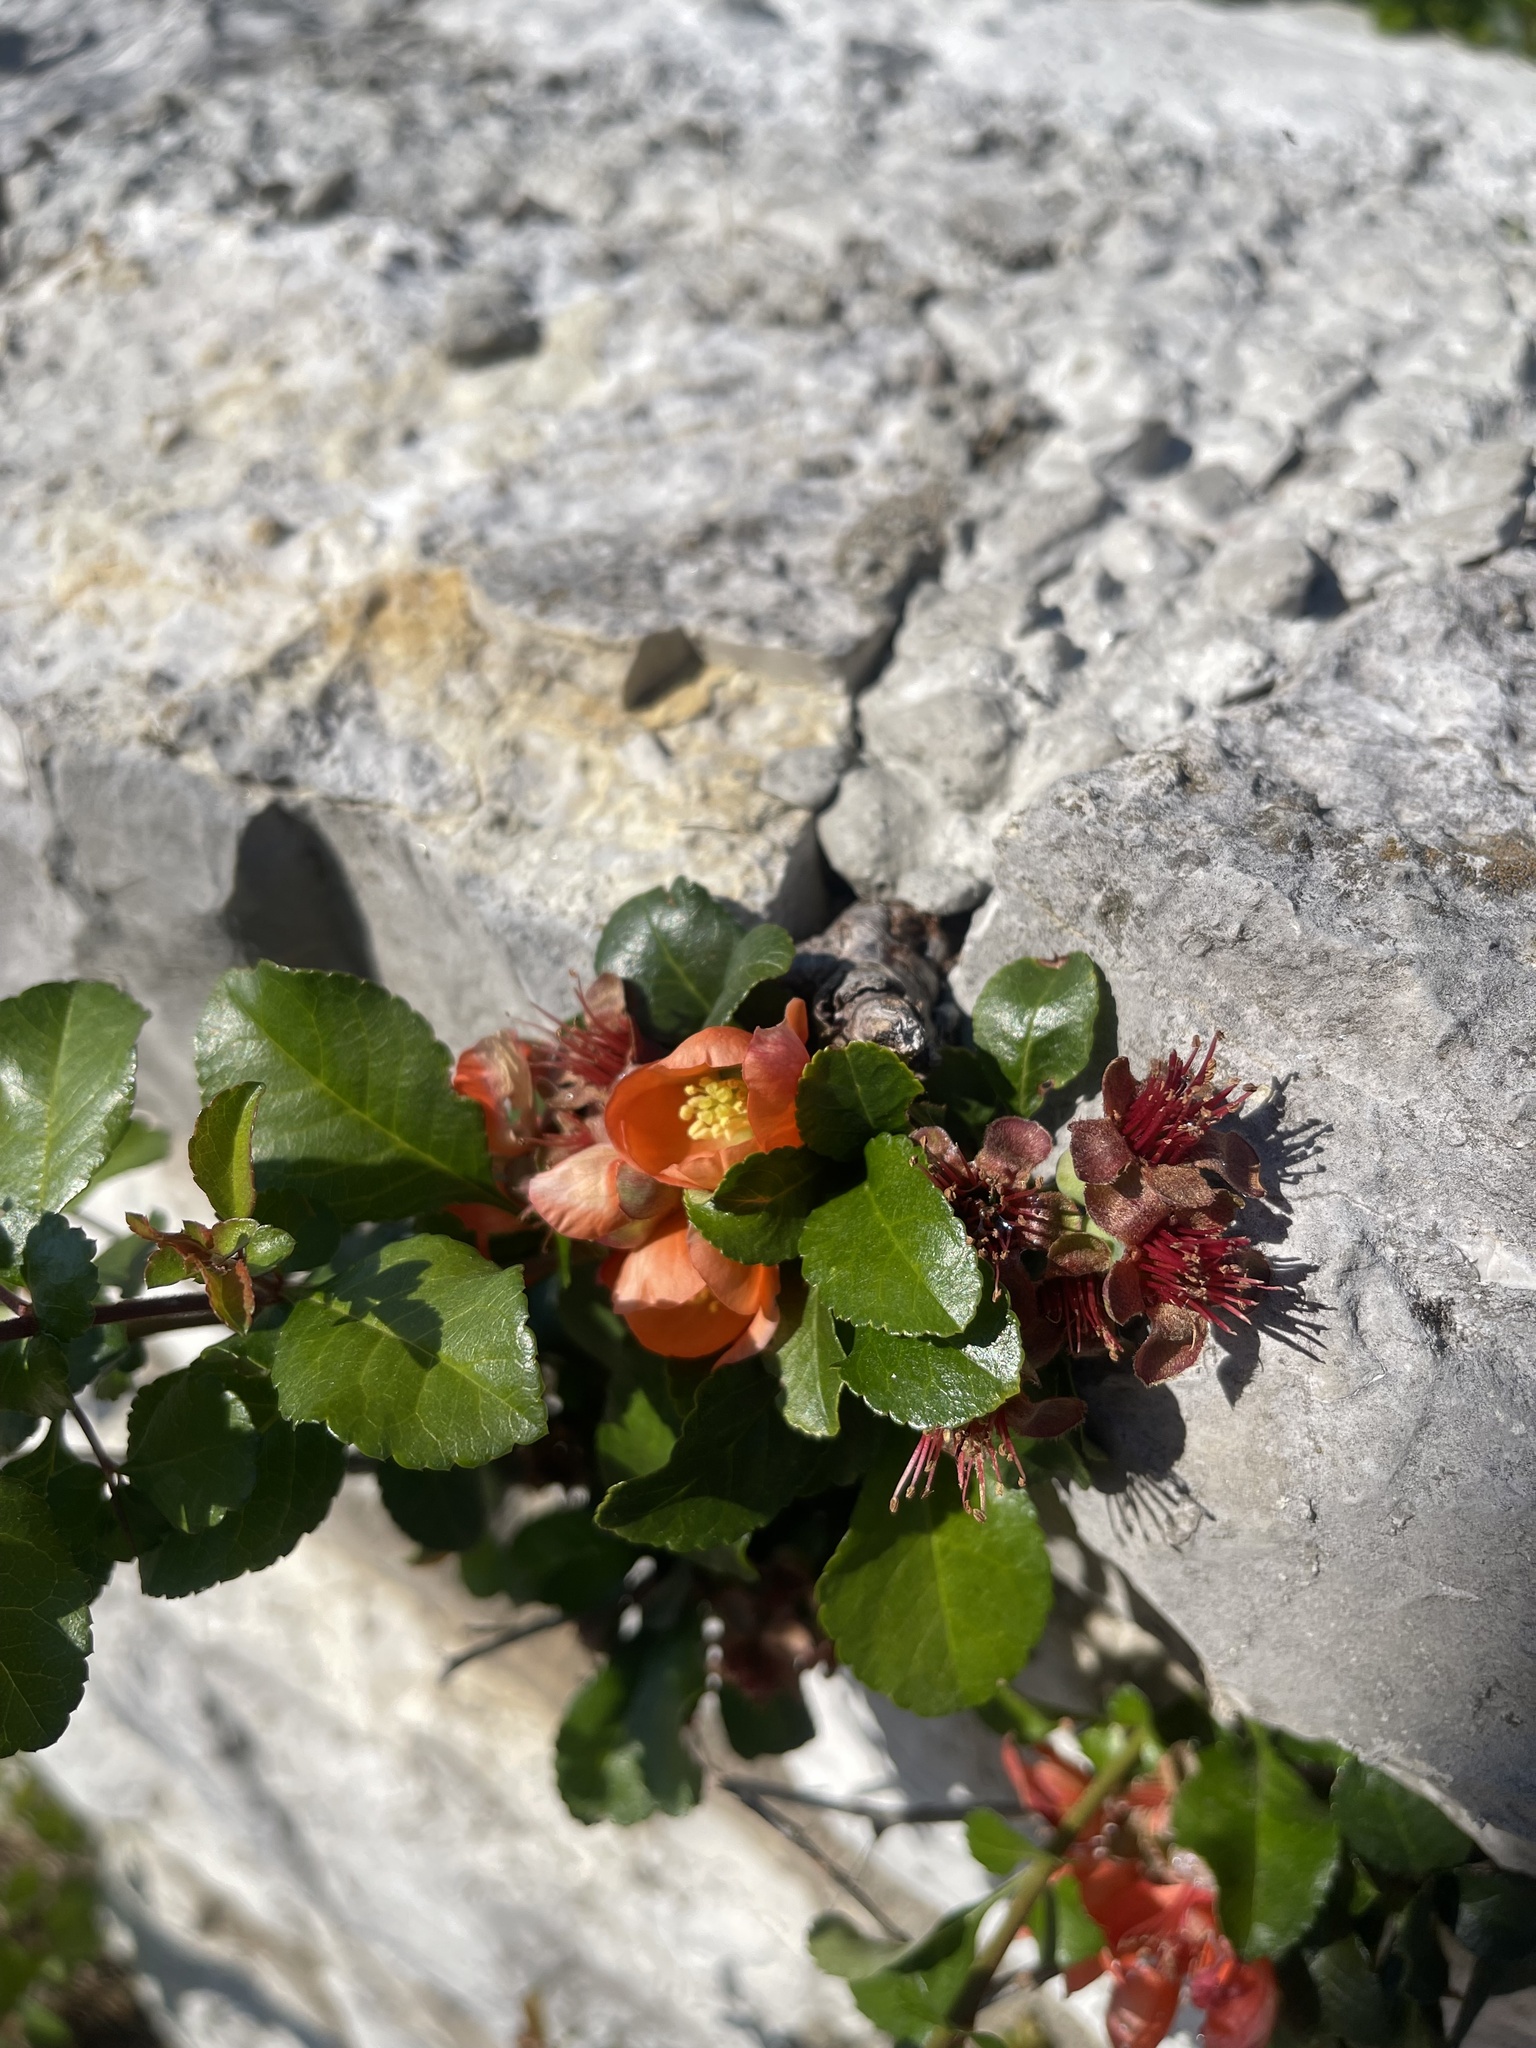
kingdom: Plantae
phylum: Tracheophyta
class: Magnoliopsida
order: Rosales
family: Rosaceae
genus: Chaenomeles
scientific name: Chaenomeles speciosa
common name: Japanese quince
